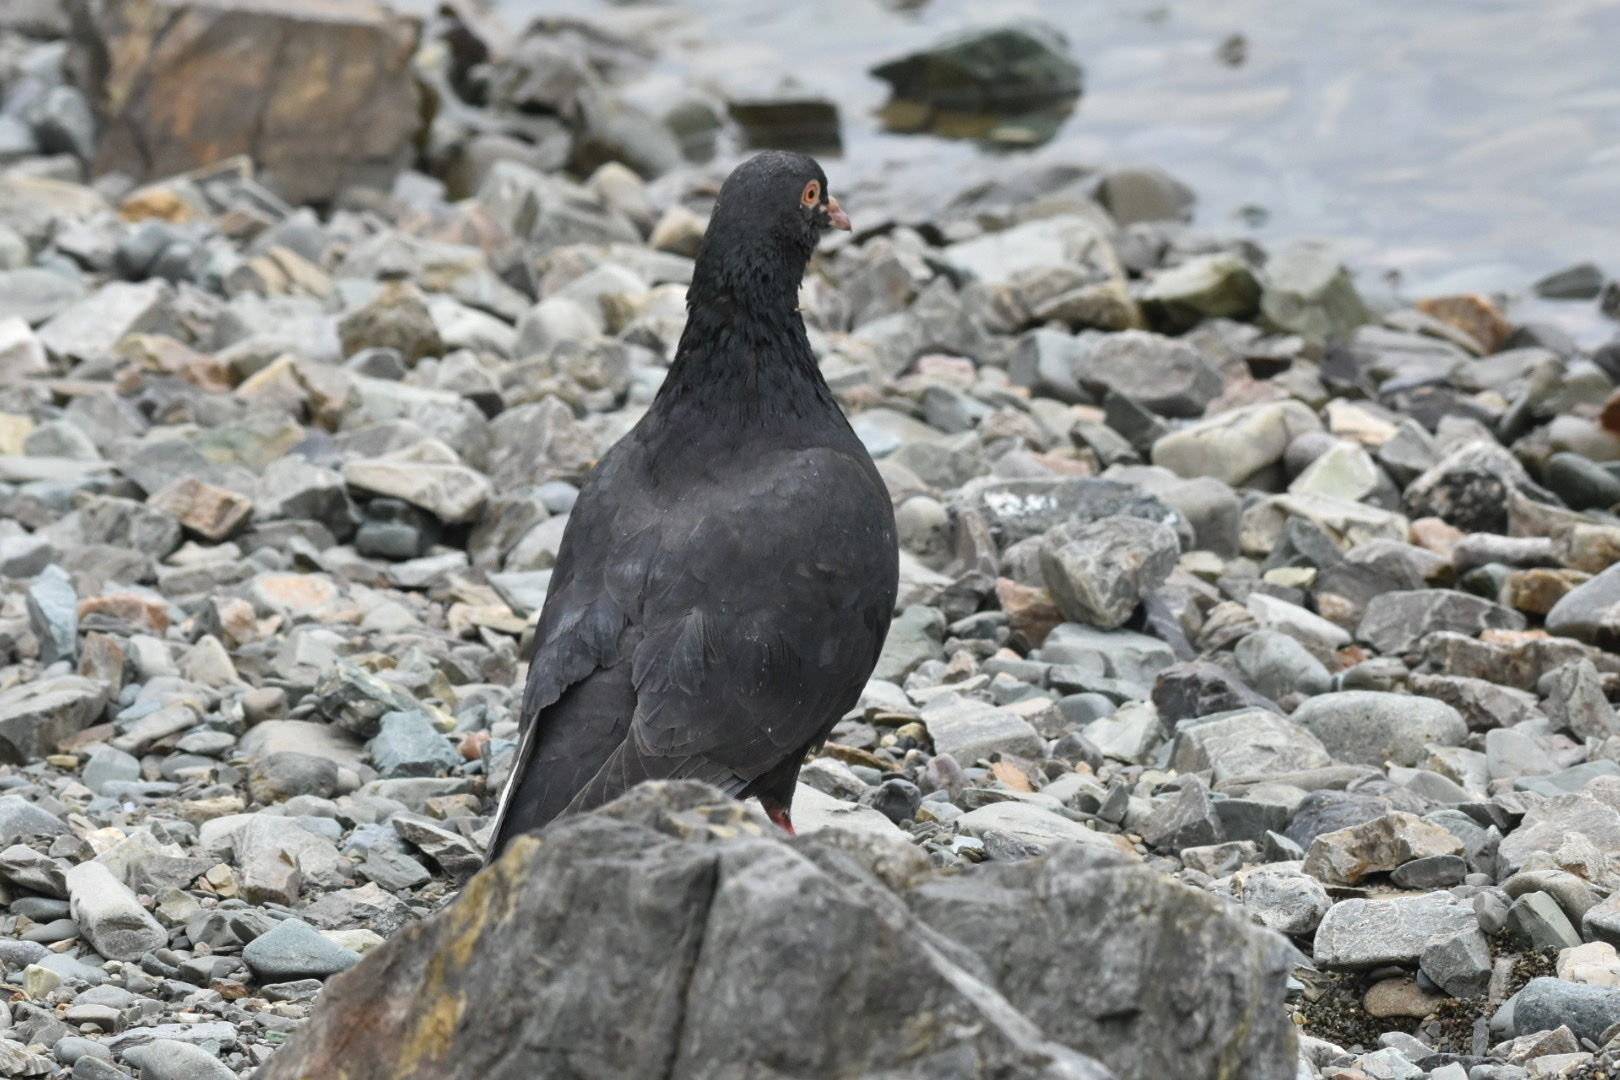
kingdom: Animalia
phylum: Chordata
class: Aves
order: Columbiformes
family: Columbidae
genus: Columba
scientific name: Columba livia
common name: Rock pigeon
